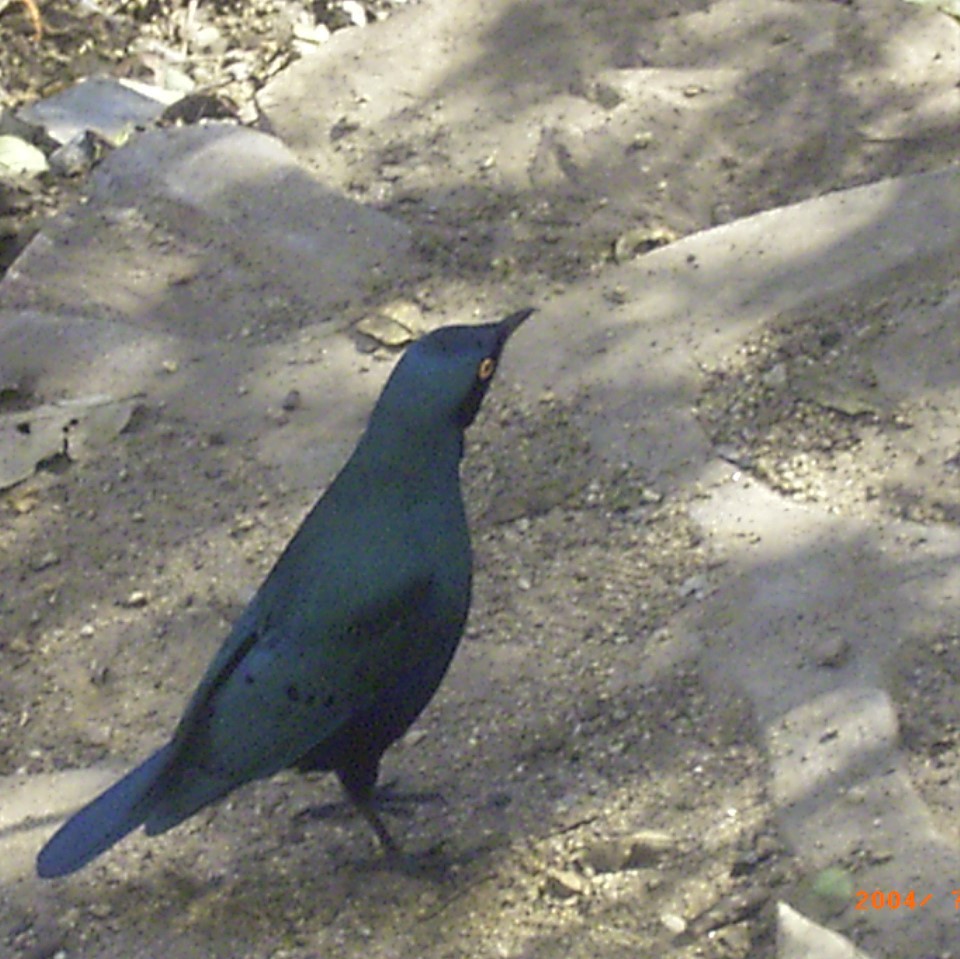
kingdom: Animalia
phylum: Chordata
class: Aves
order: Passeriformes
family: Sturnidae
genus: Lamprotornis
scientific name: Lamprotornis chalybaeus
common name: Greater blue-eared starling
